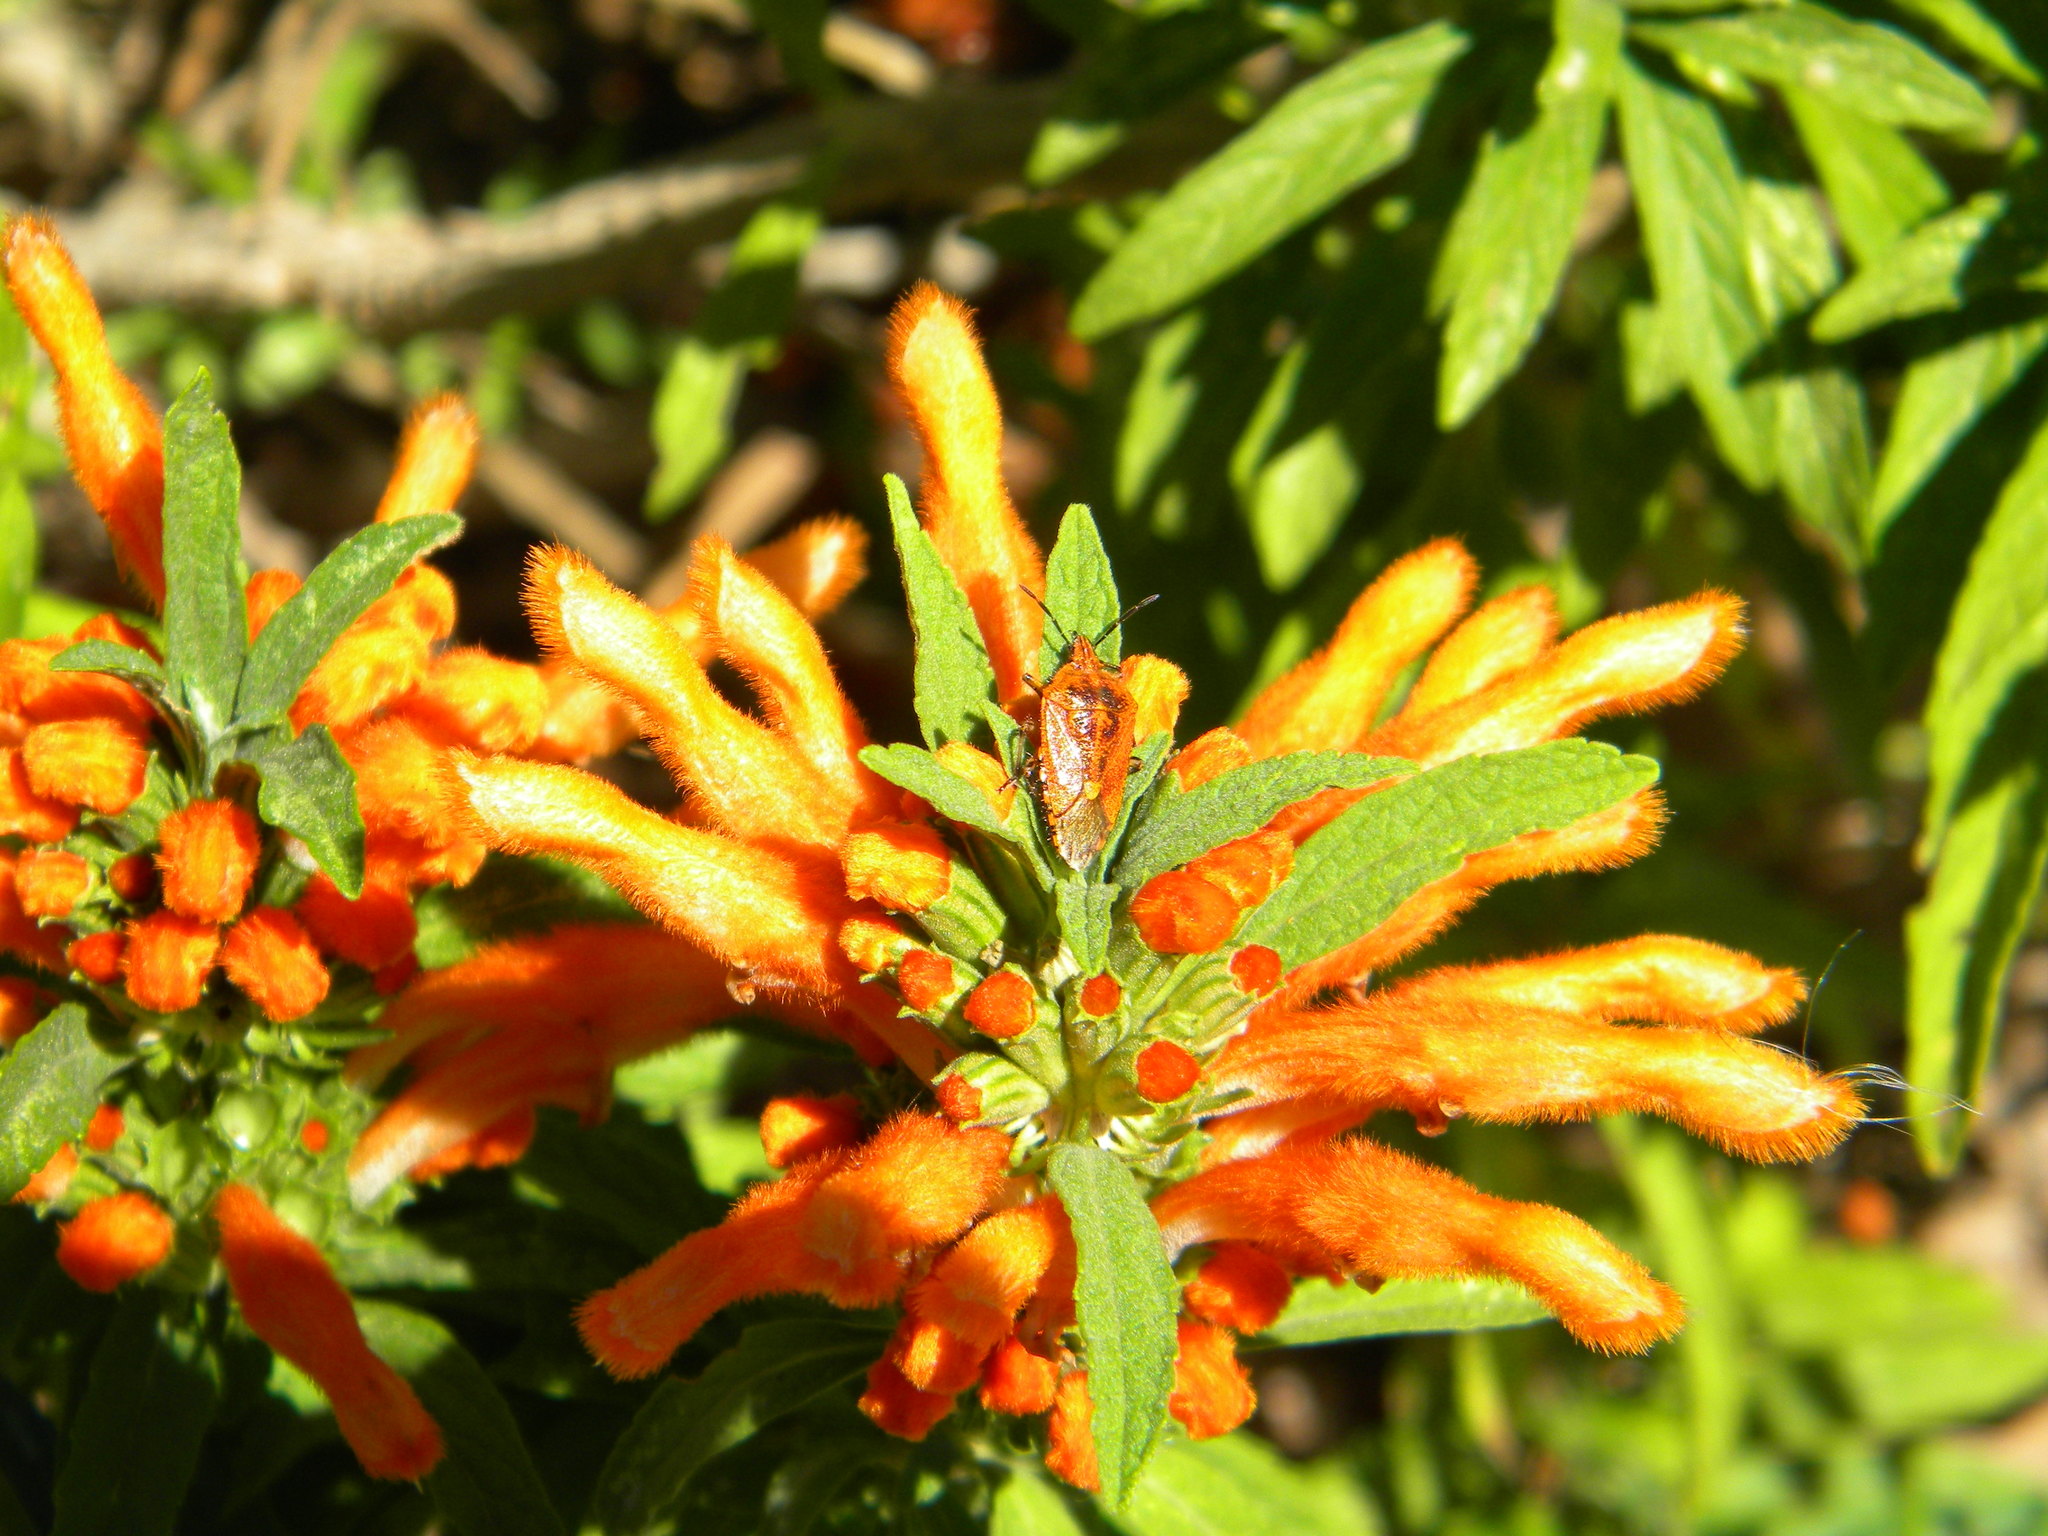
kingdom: Animalia
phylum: Arthropoda
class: Insecta
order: Hemiptera
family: Pentatomidae
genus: Agonoscelis
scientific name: Agonoscelis
